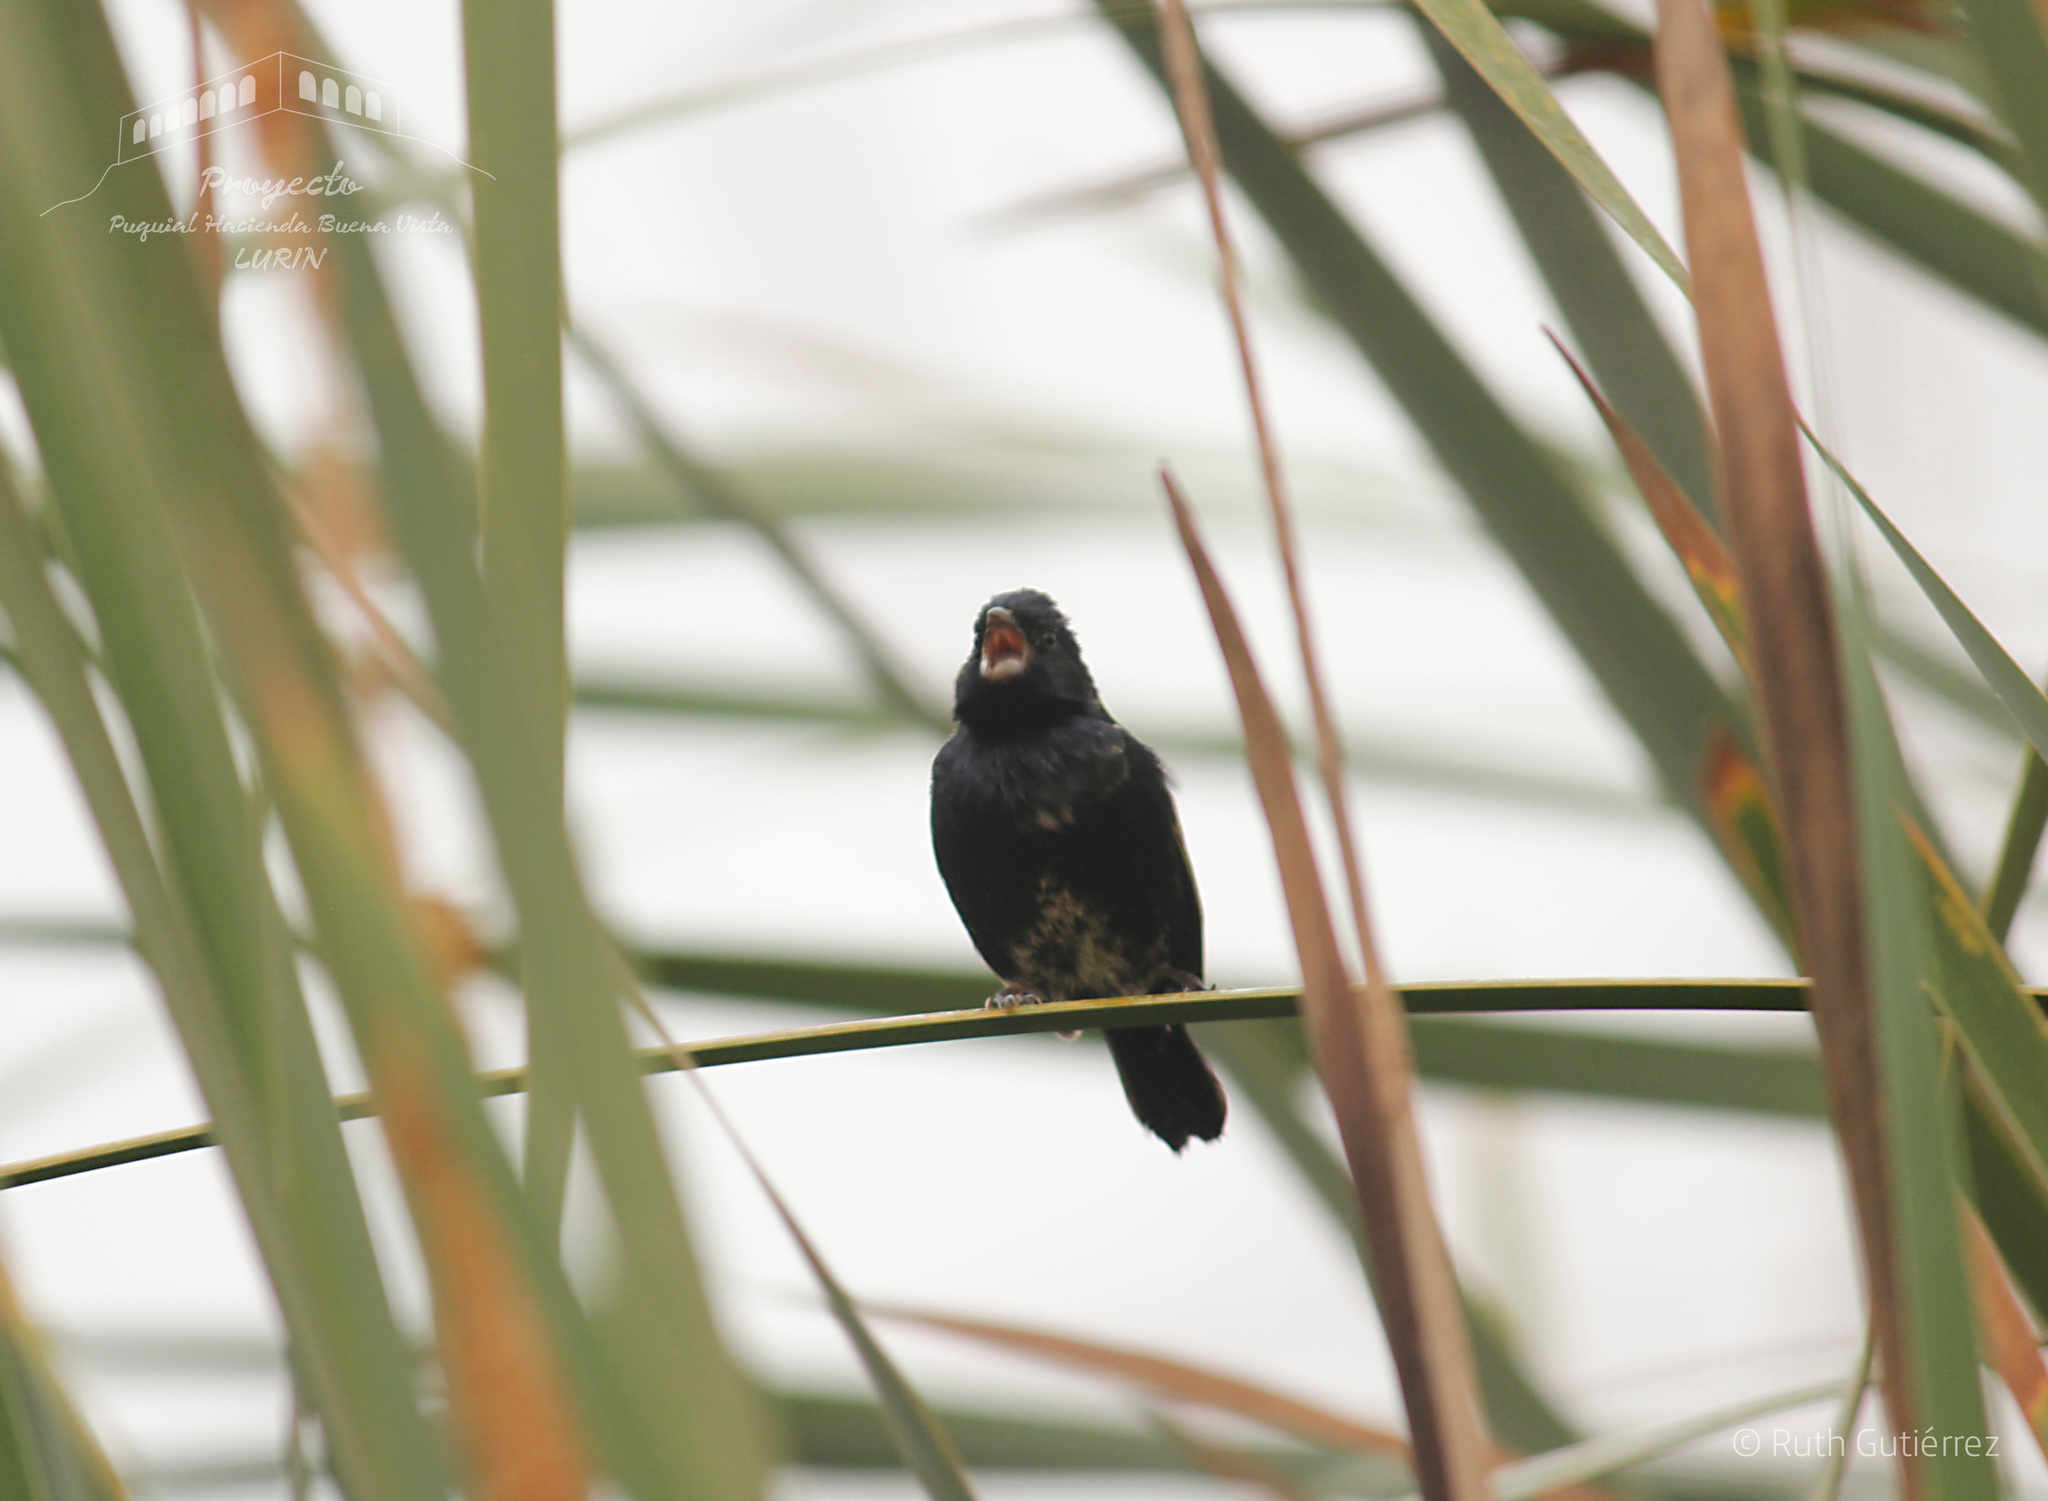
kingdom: Animalia
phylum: Chordata
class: Aves
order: Passeriformes
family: Thraupidae
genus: Volatinia
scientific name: Volatinia jacarina
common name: Blue-black grassquit
